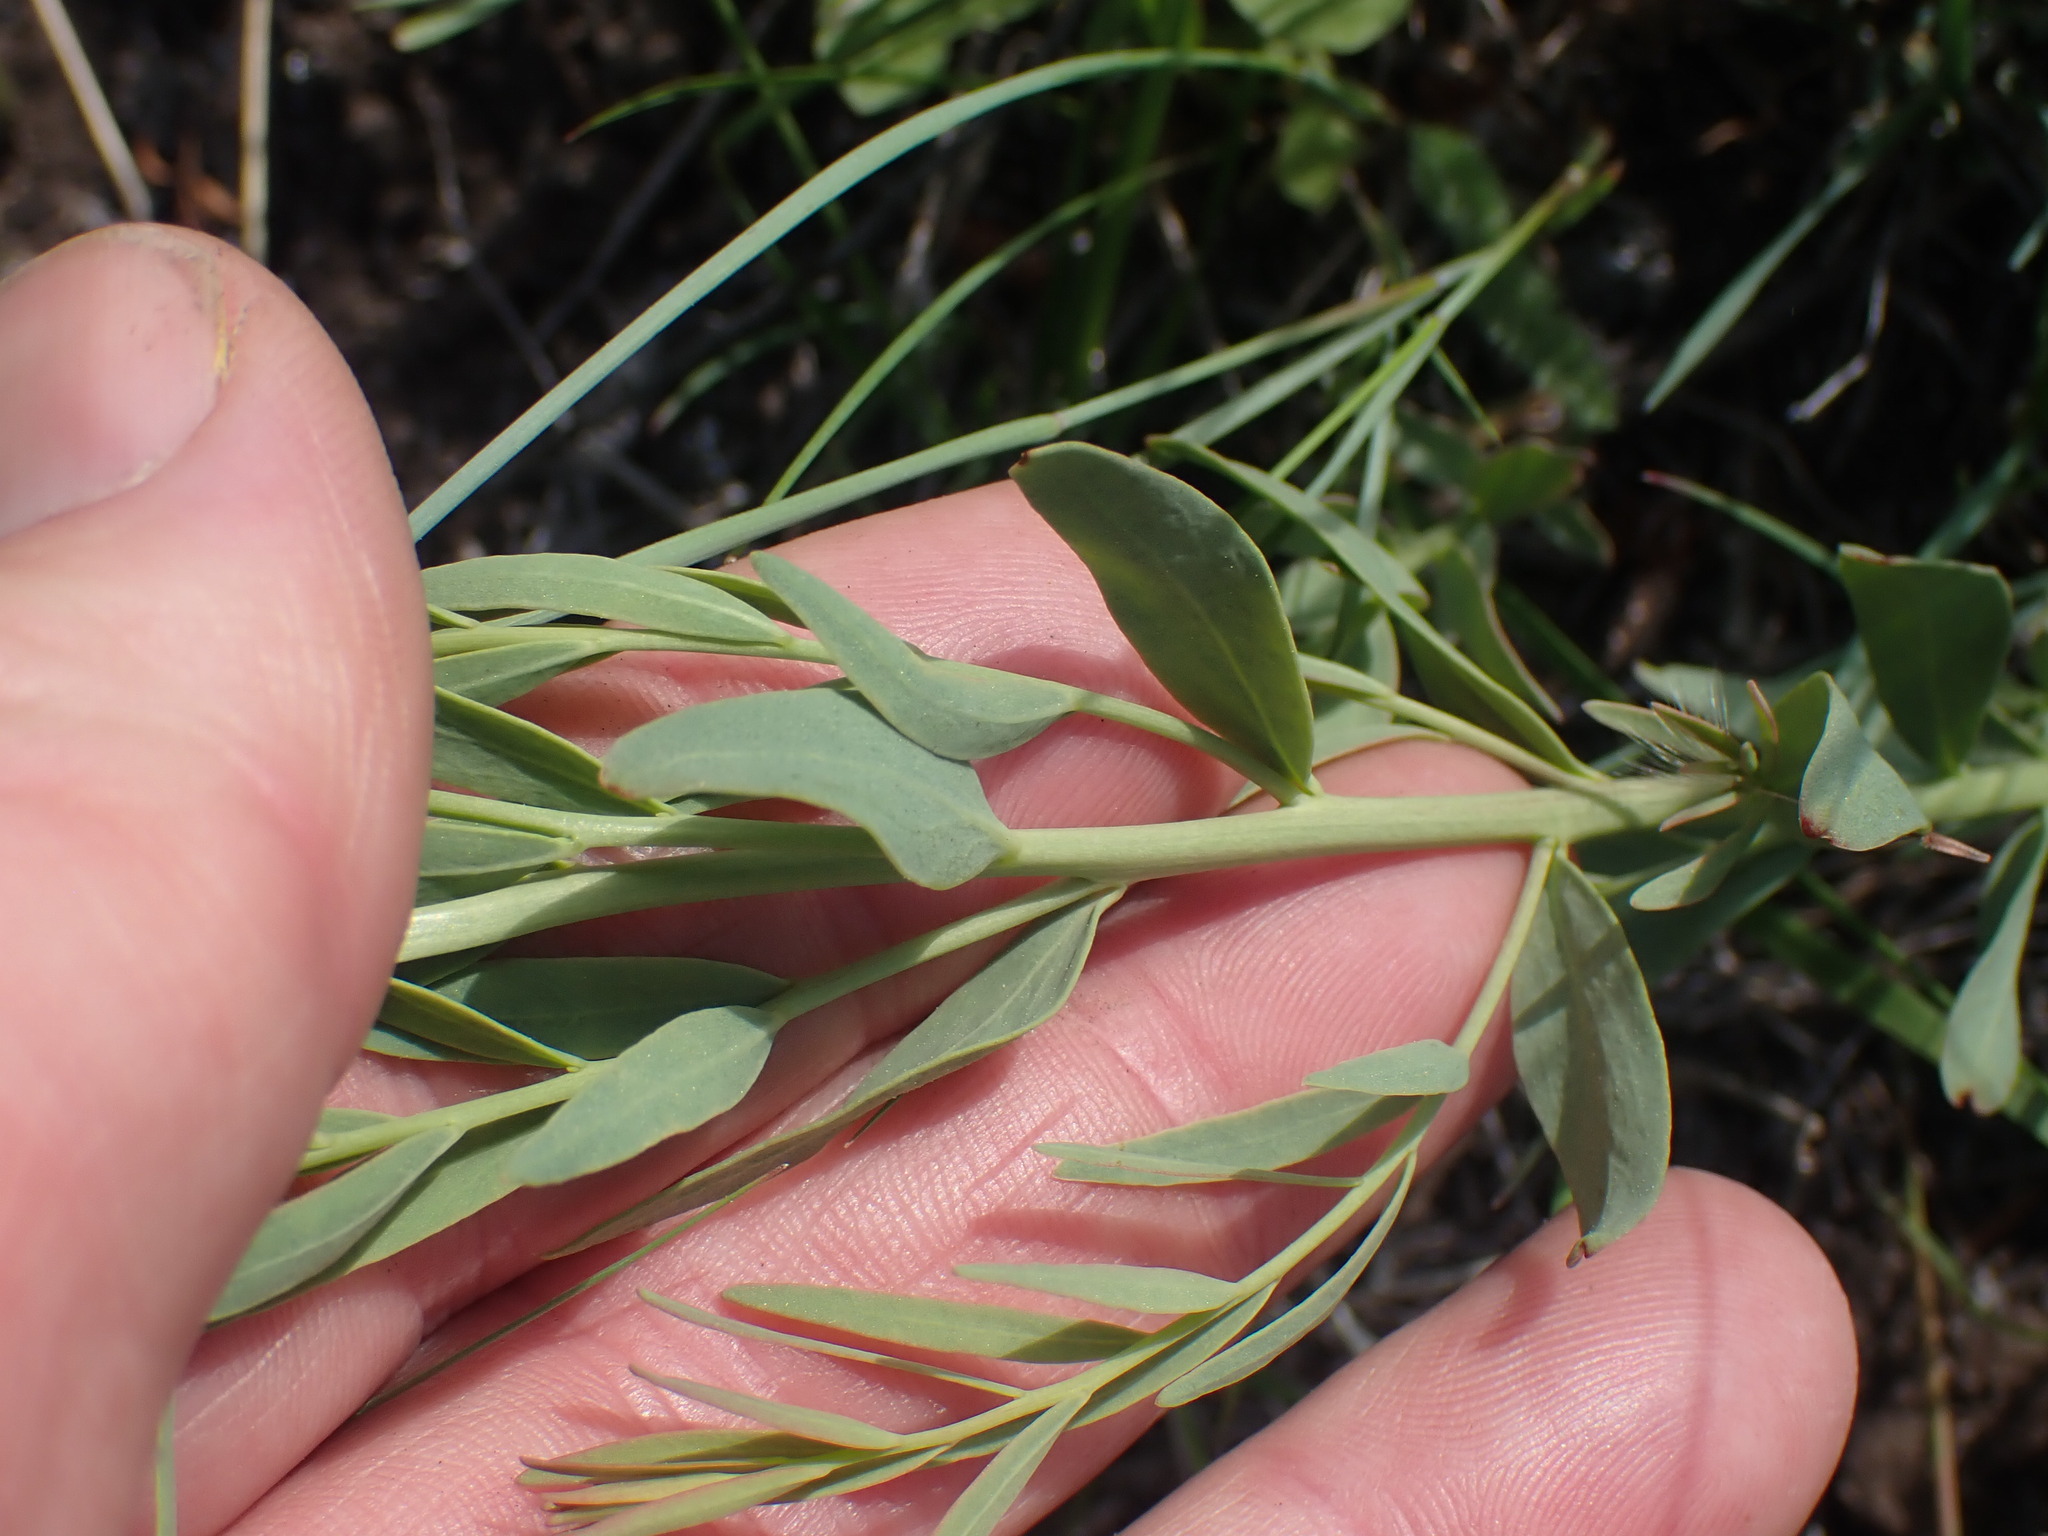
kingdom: Plantae
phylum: Tracheophyta
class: Magnoliopsida
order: Santalales
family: Comandraceae
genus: Comandra
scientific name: Comandra umbellata
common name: Bastard toadflax
